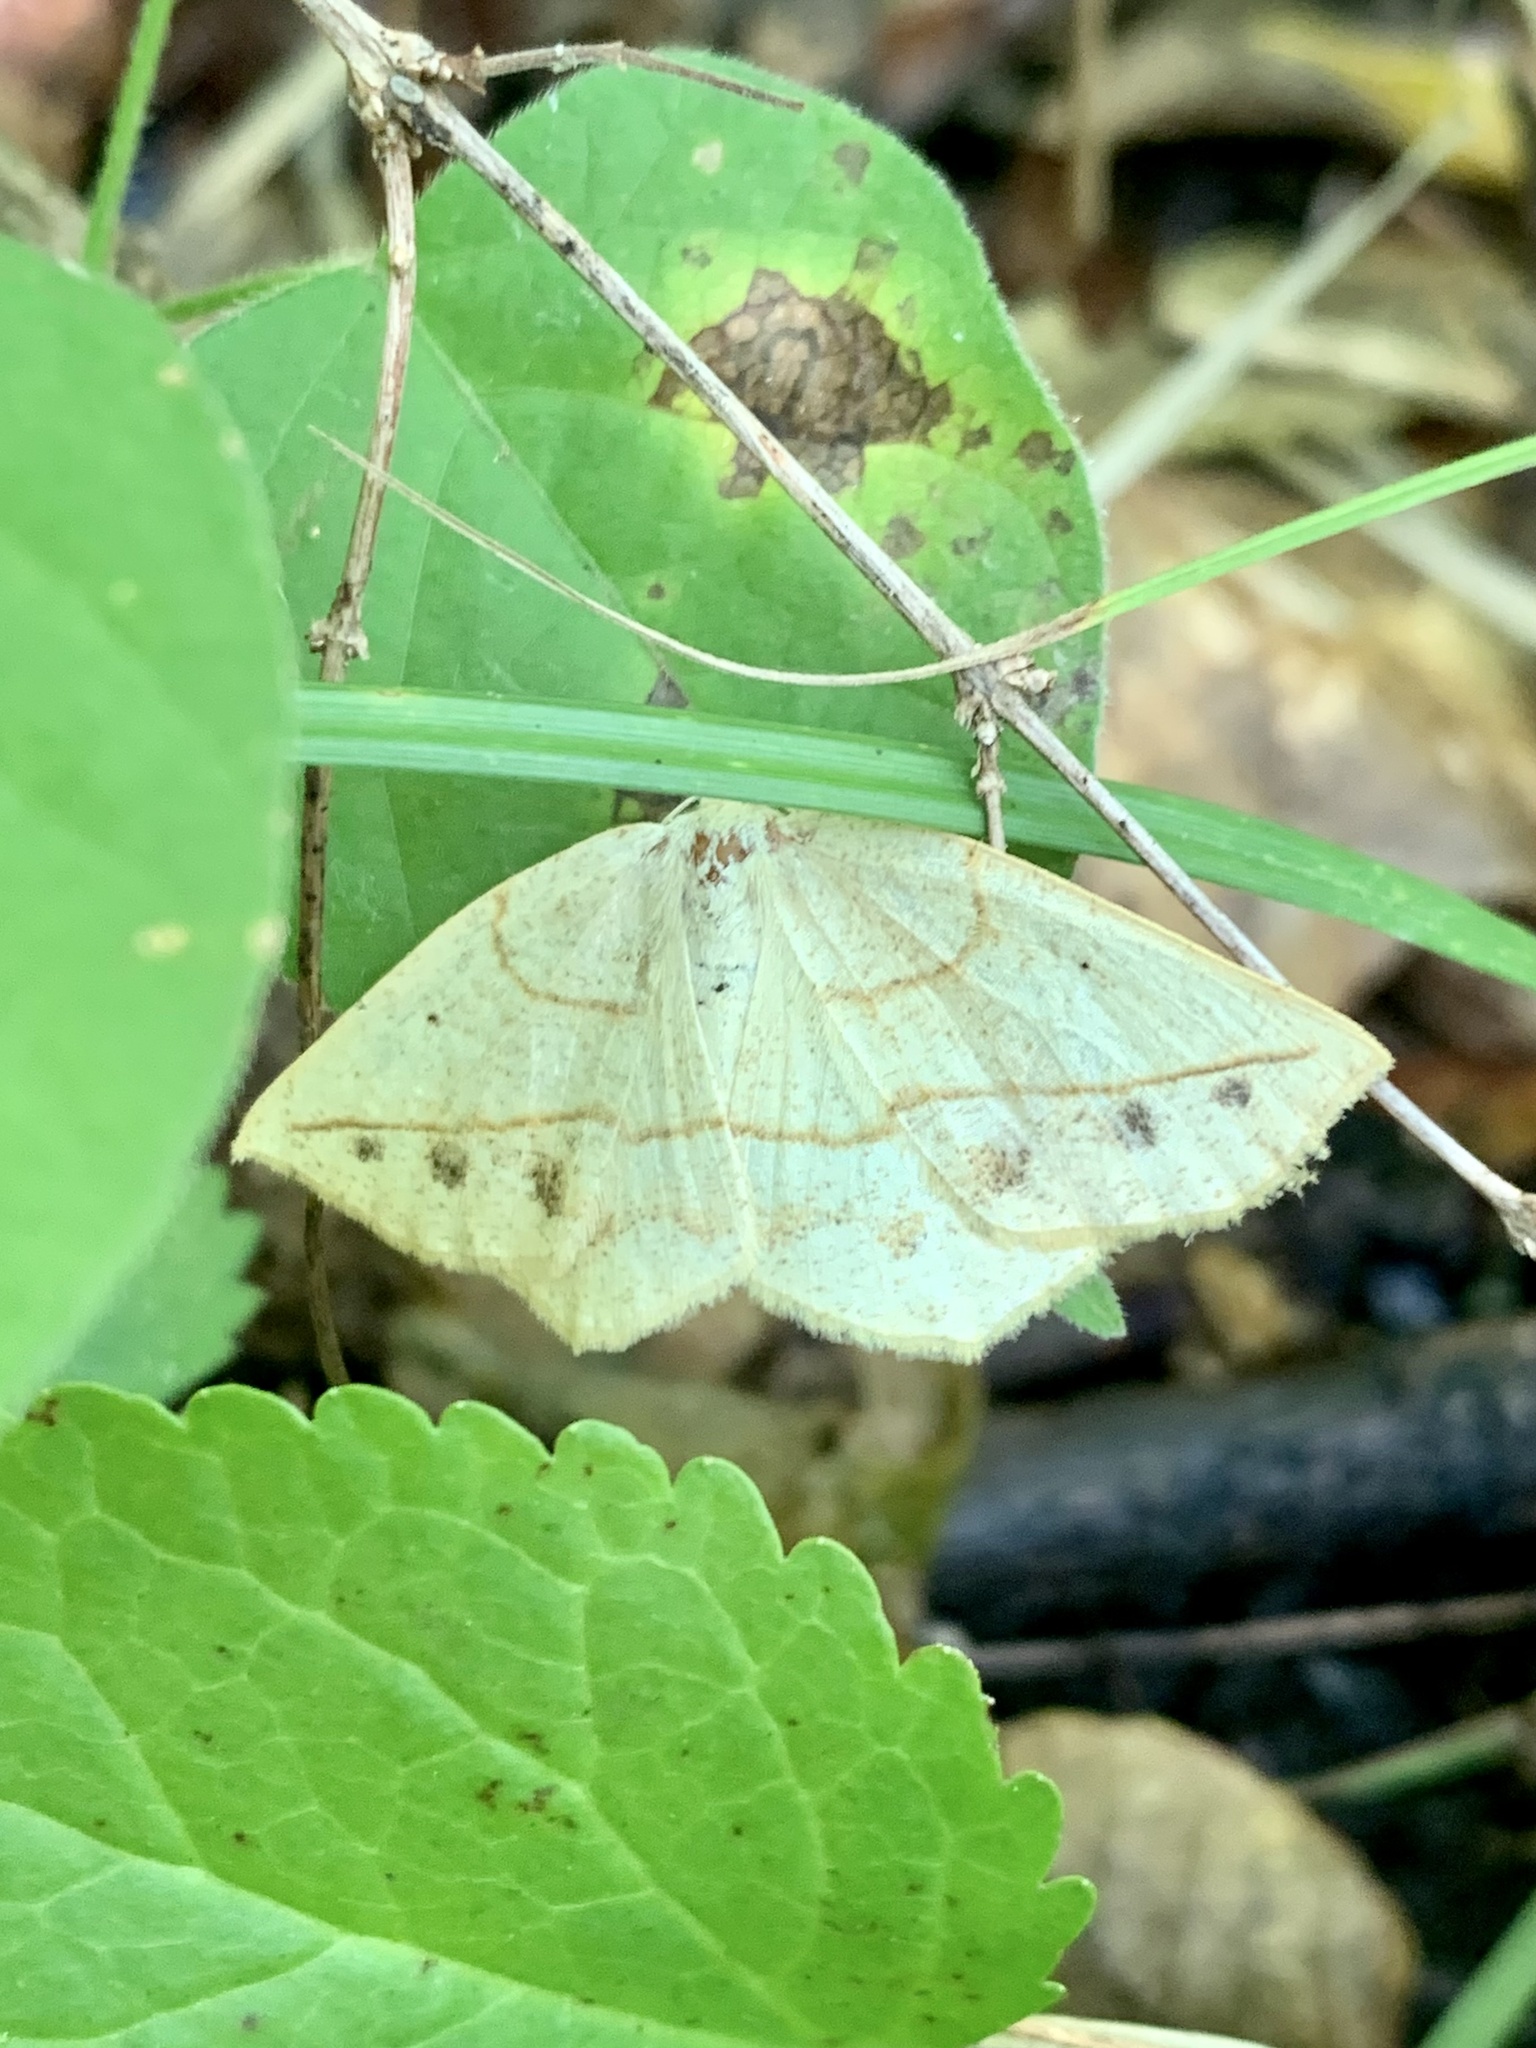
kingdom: Animalia
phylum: Arthropoda
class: Insecta
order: Lepidoptera
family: Geometridae
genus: Eusarca
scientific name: Eusarca confusaria
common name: Confused eusarca
